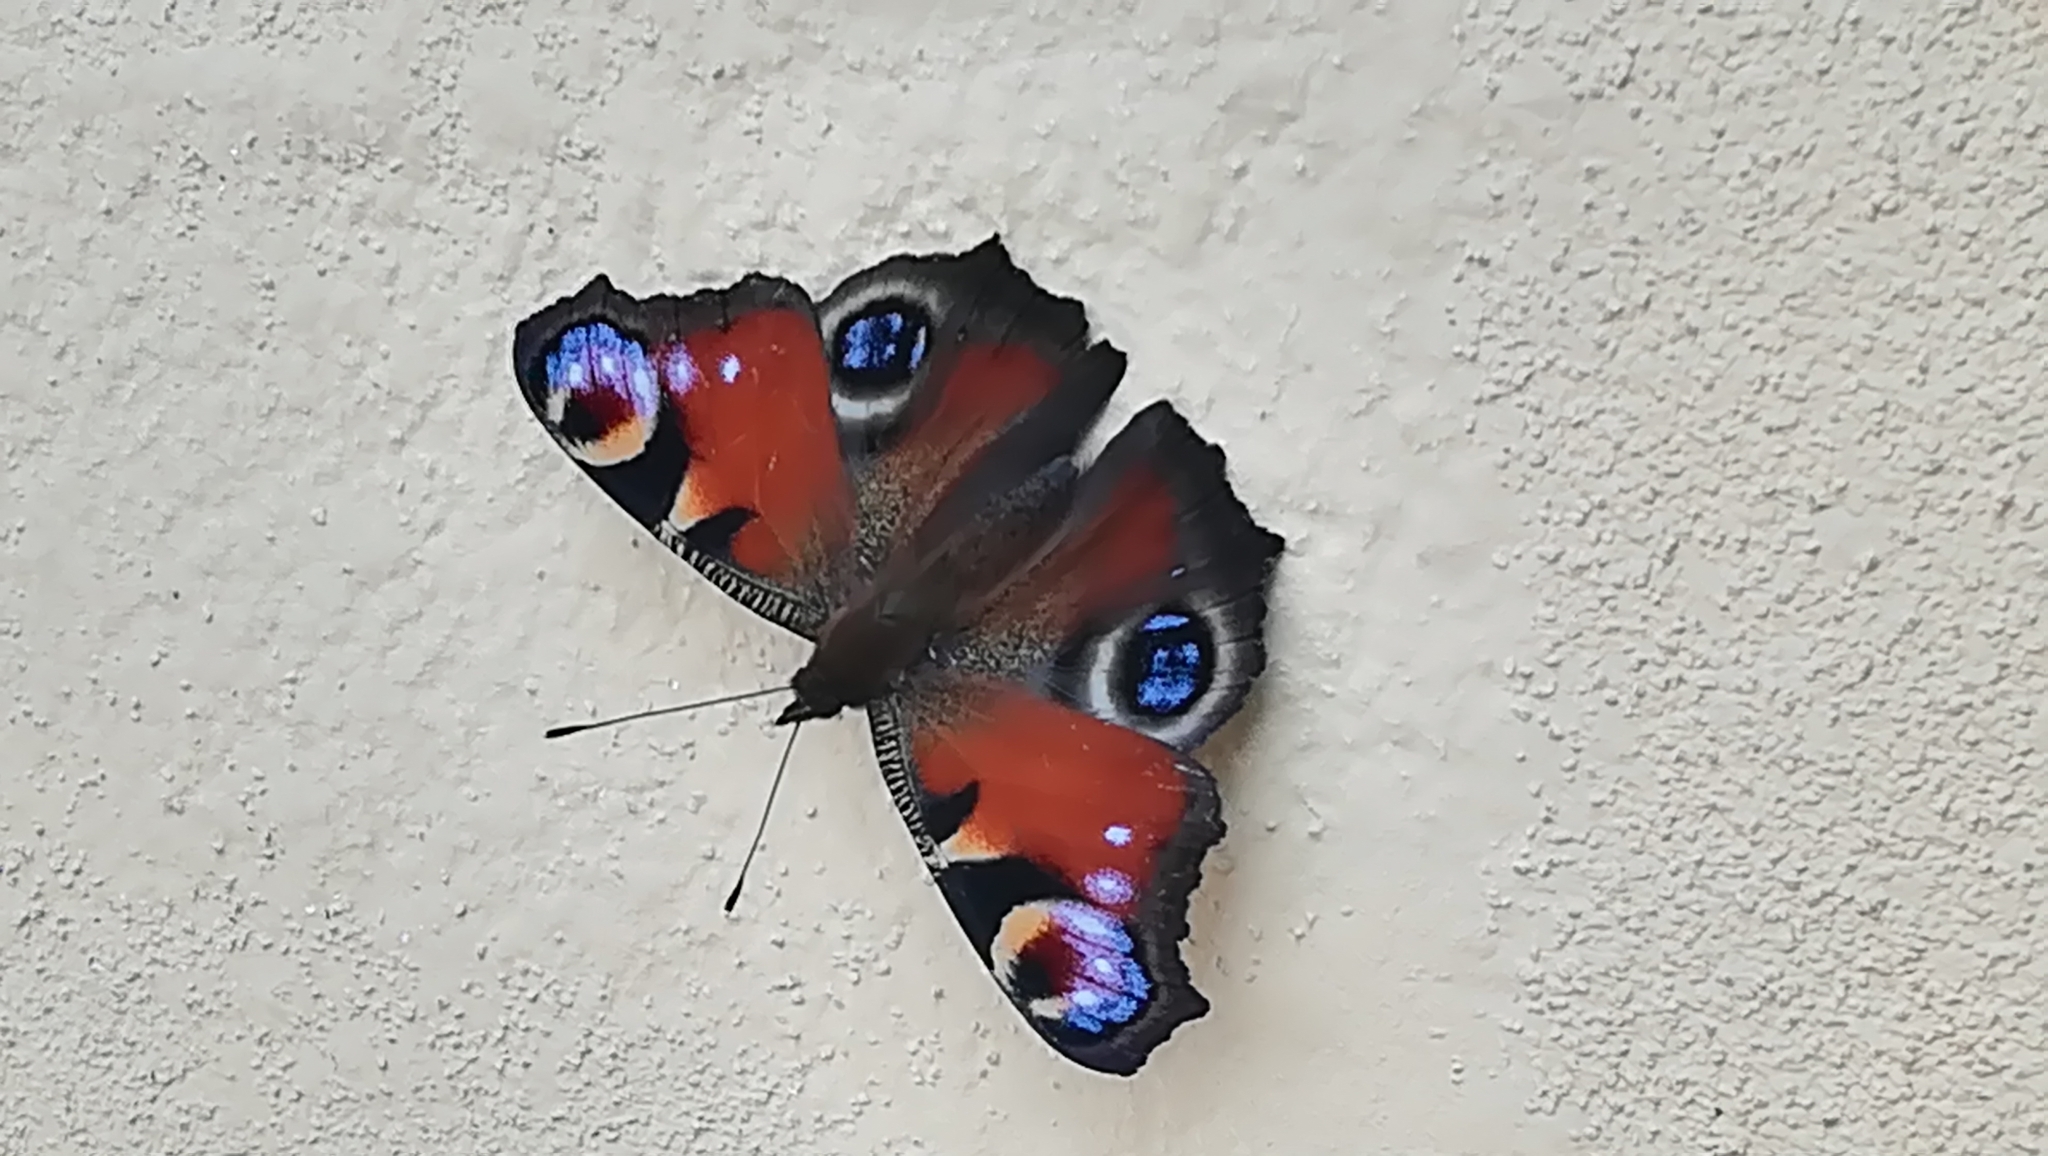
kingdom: Animalia
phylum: Arthropoda
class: Insecta
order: Lepidoptera
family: Nymphalidae
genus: Aglais
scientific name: Aglais io
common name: Peacock
